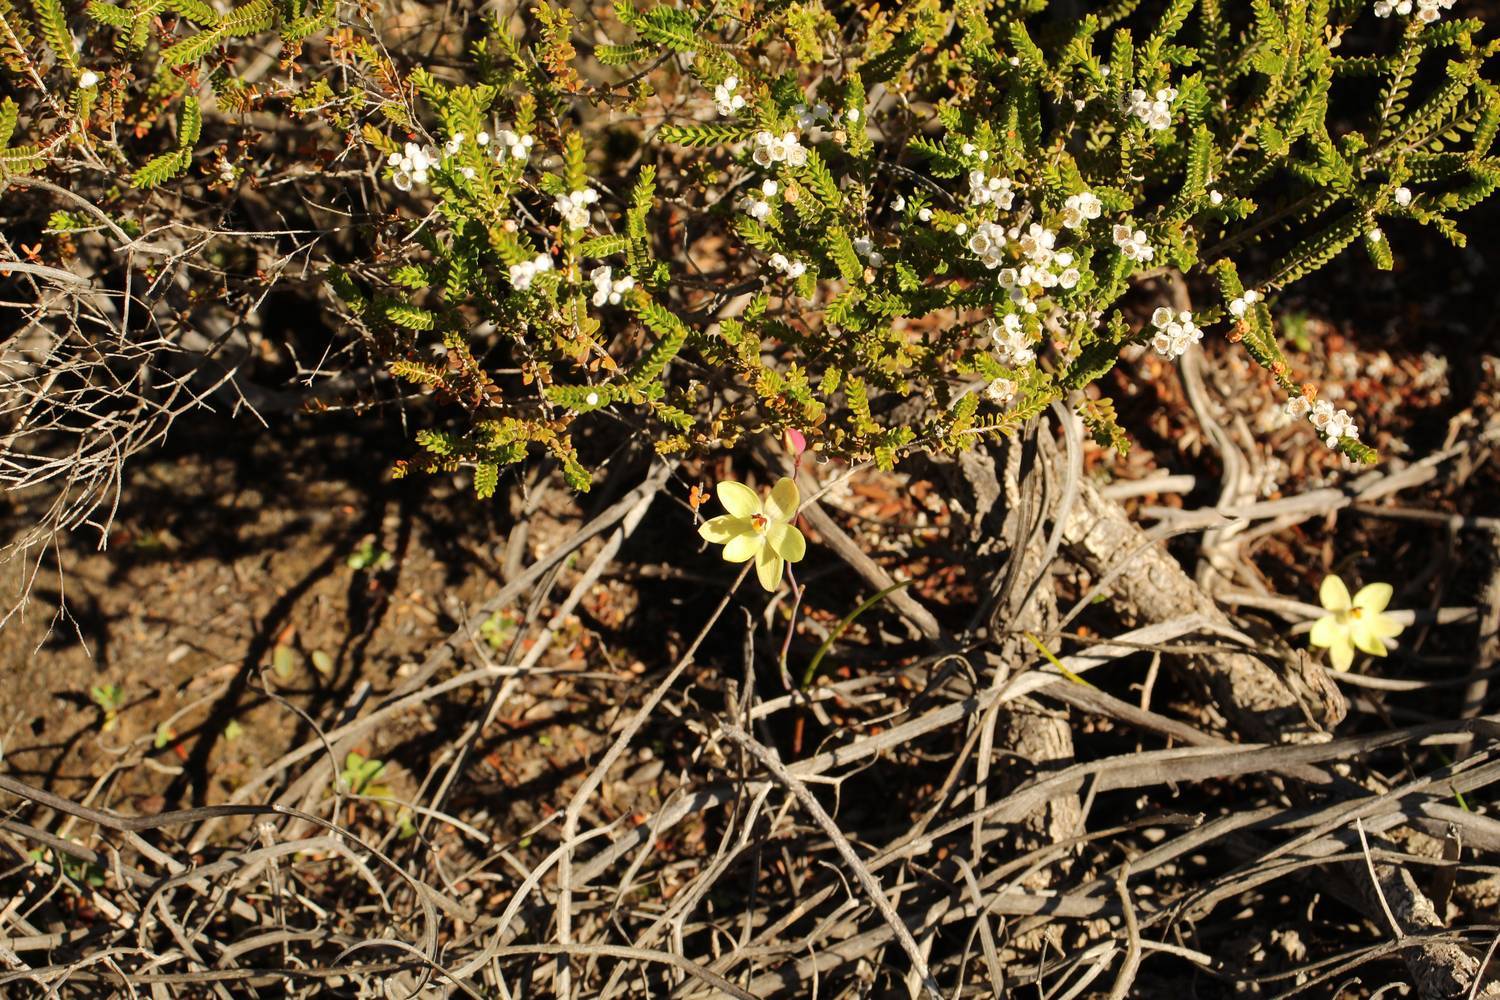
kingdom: Plantae
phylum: Tracheophyta
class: Liliopsida
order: Asparagales
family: Orchidaceae
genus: Thelymitra
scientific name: Thelymitra antennifera
